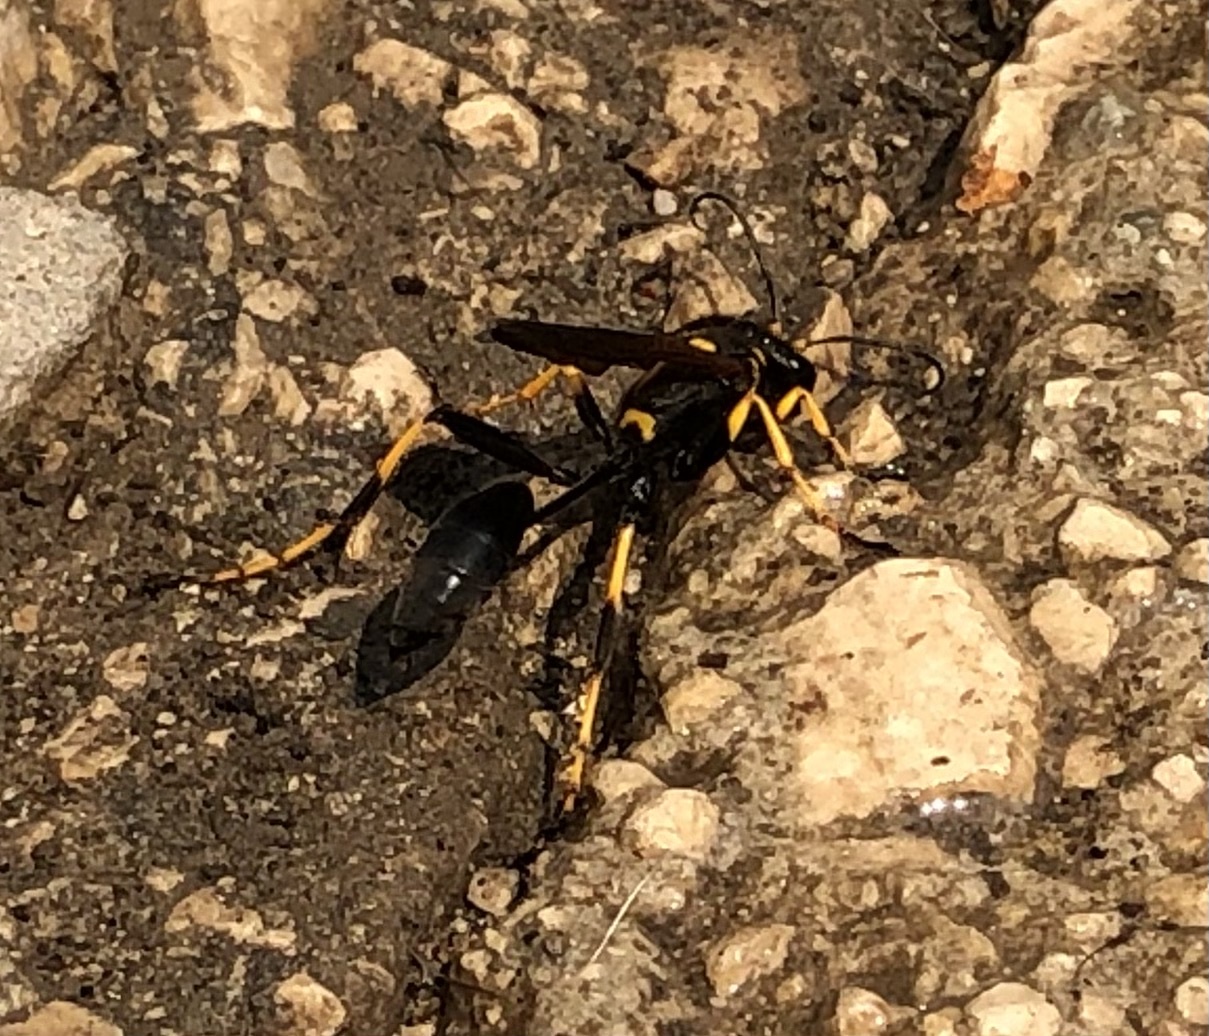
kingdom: Animalia
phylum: Arthropoda
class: Insecta
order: Hymenoptera
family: Sphecidae
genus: Sceliphron
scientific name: Sceliphron caementarium
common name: Mud dauber
